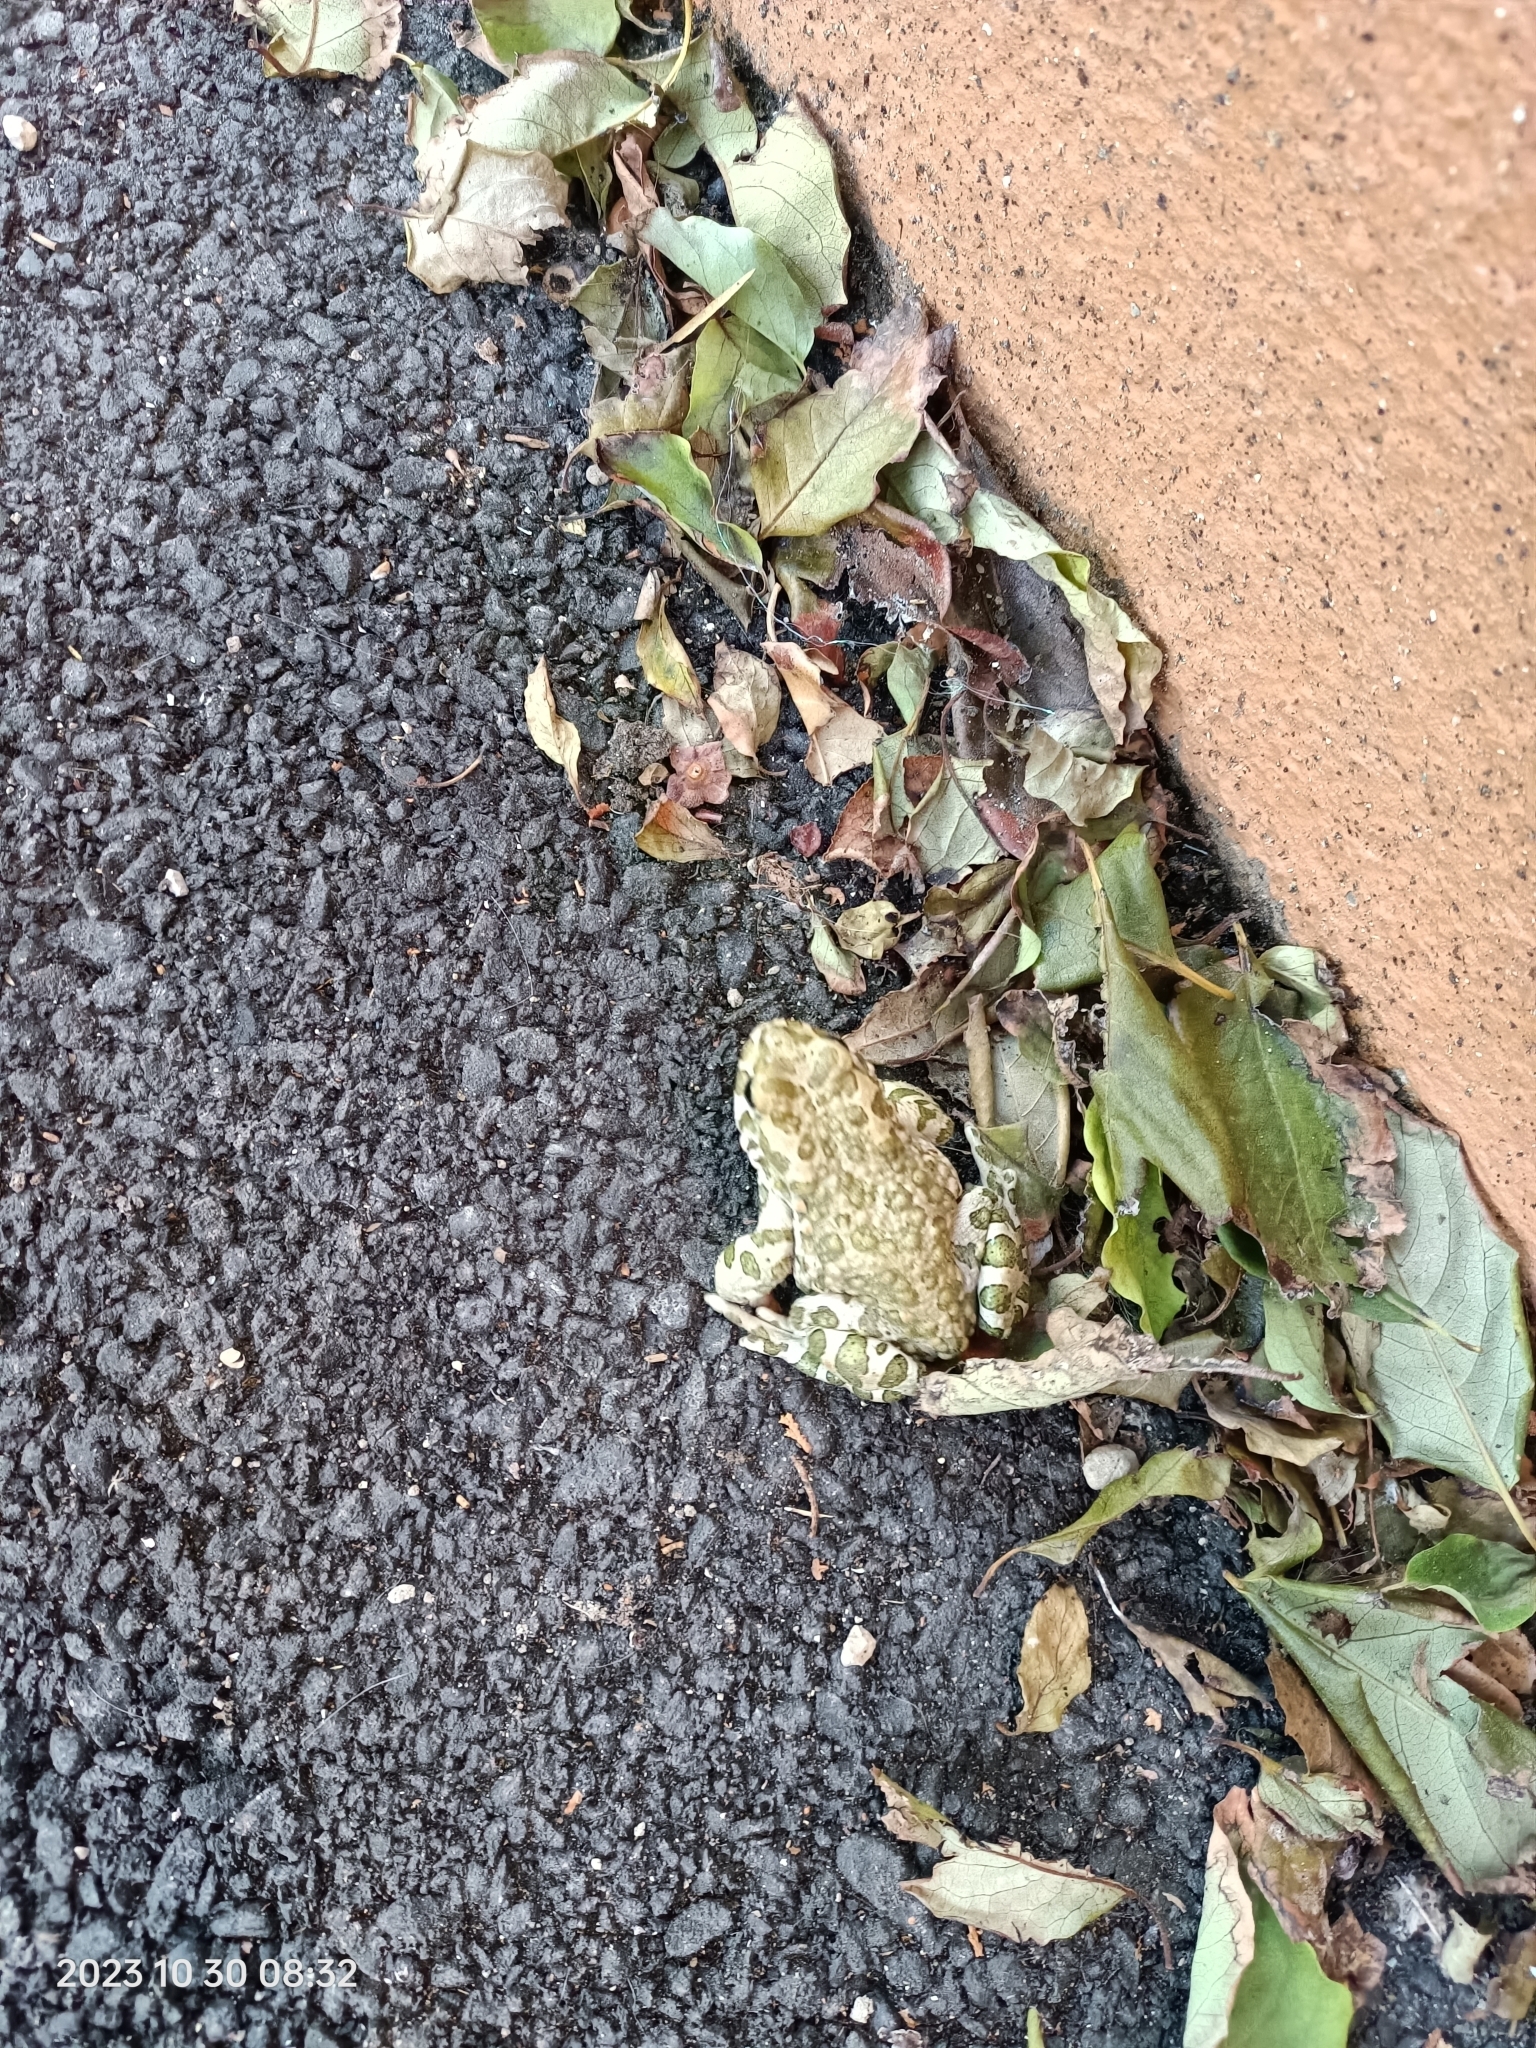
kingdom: Animalia
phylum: Chordata
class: Amphibia
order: Anura
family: Bufonidae
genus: Bufotes
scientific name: Bufotes viridis
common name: European green toad
